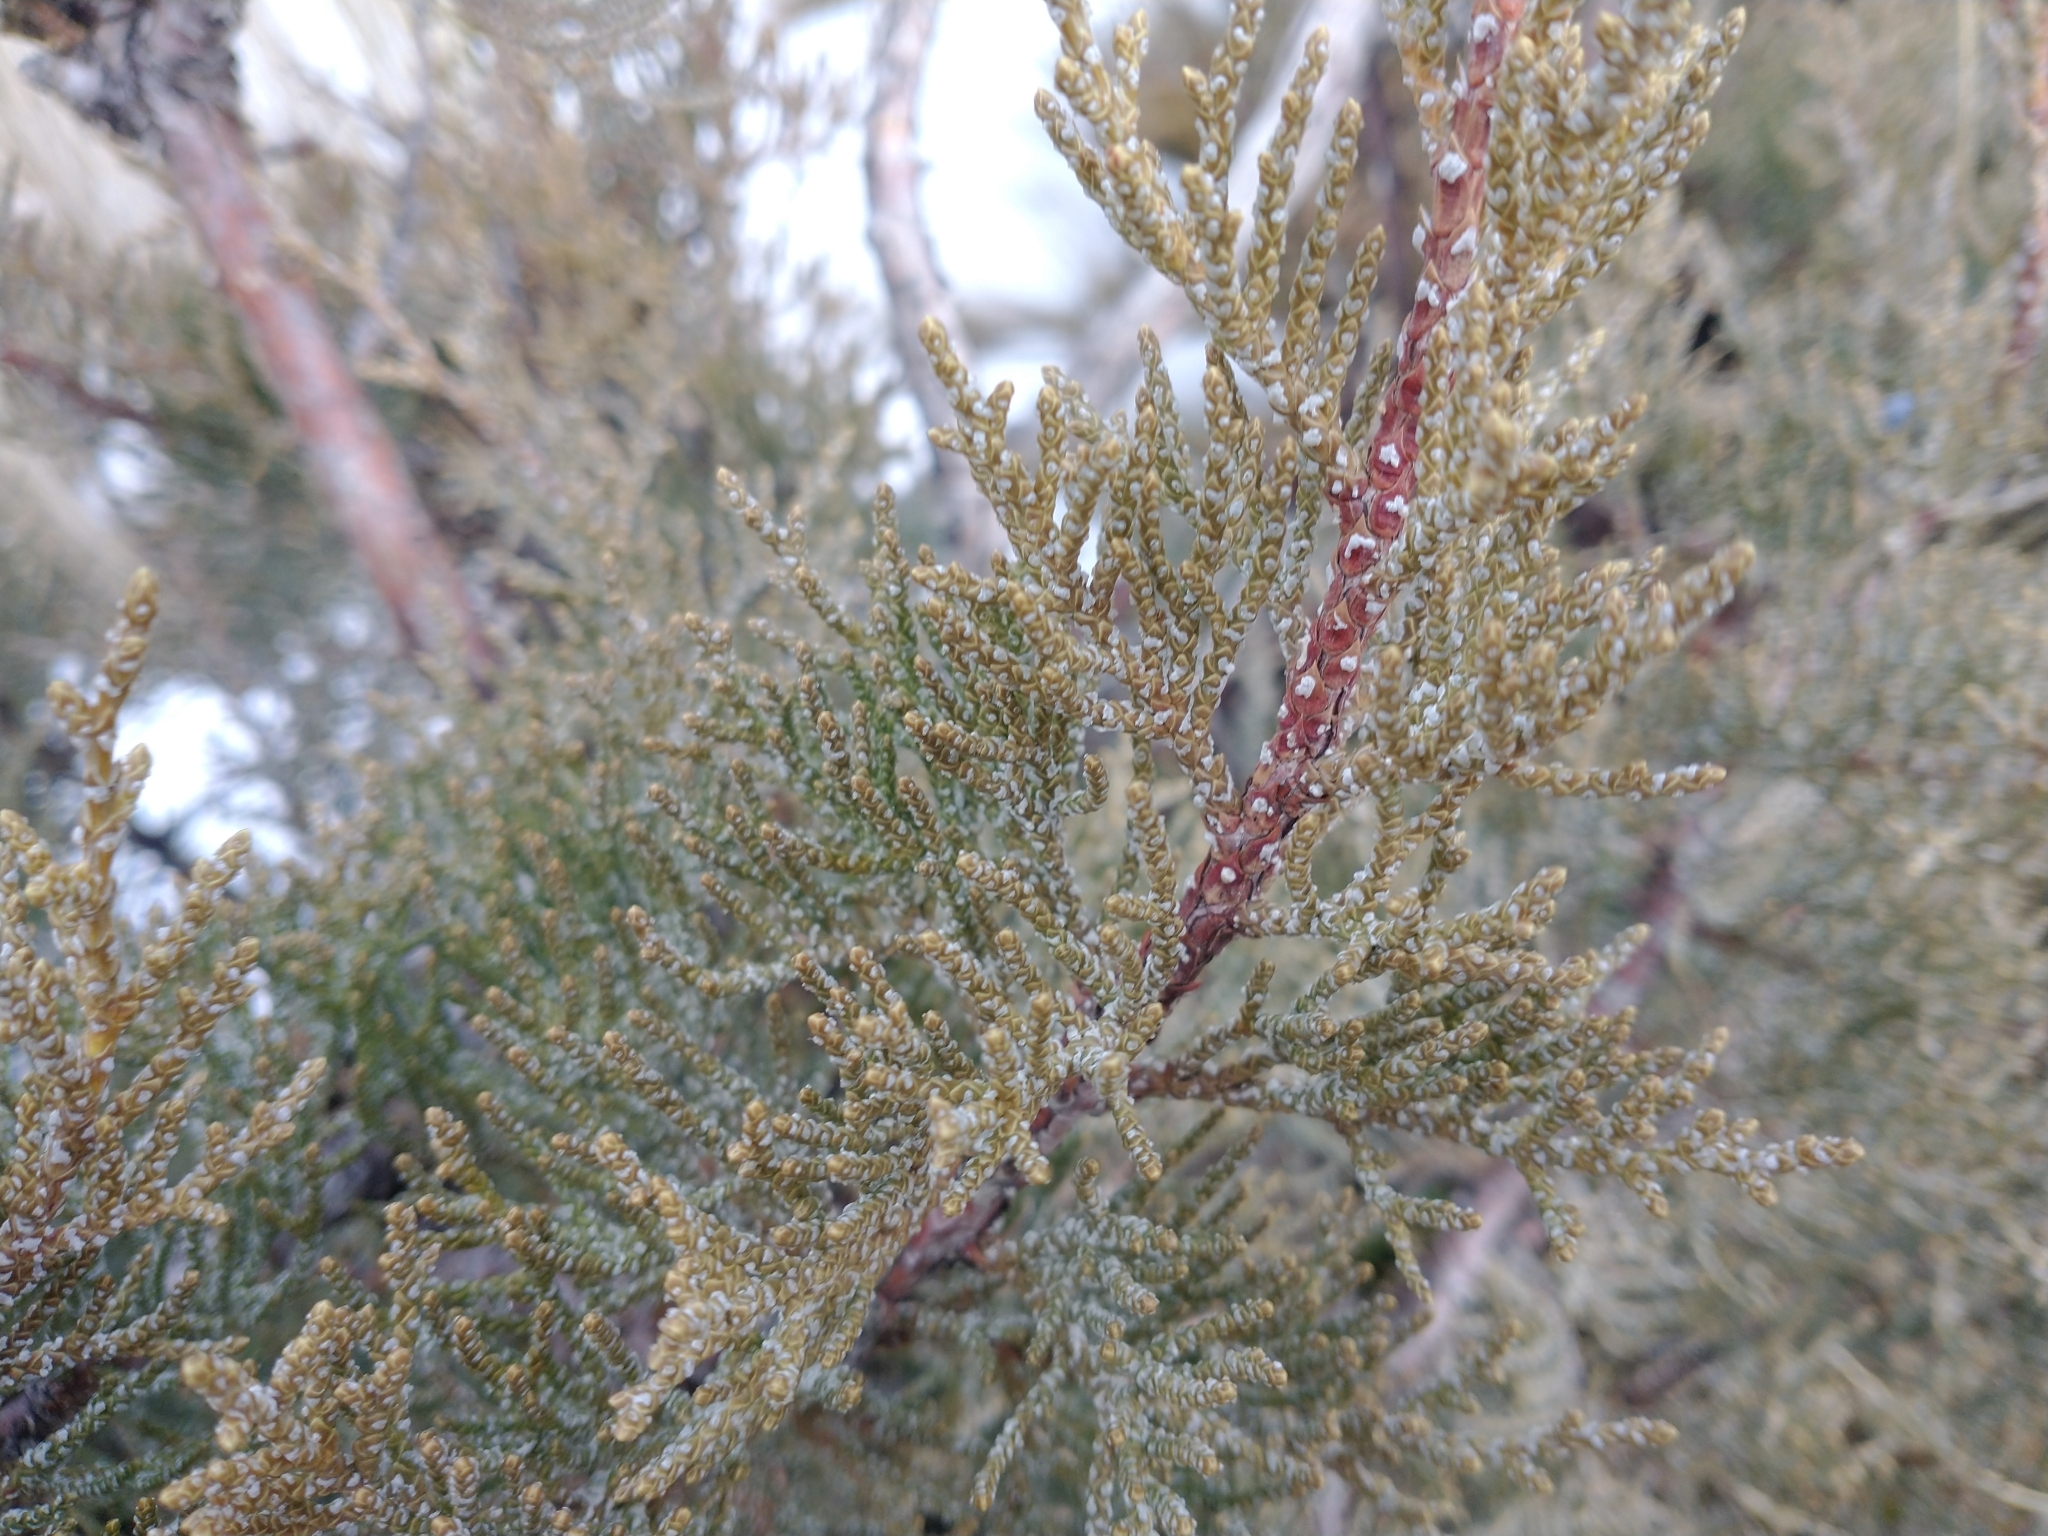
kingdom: Plantae
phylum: Tracheophyta
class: Pinopsida
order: Pinales
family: Cupressaceae
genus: Juniperus
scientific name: Juniperus occidentalis
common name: Western juniper
